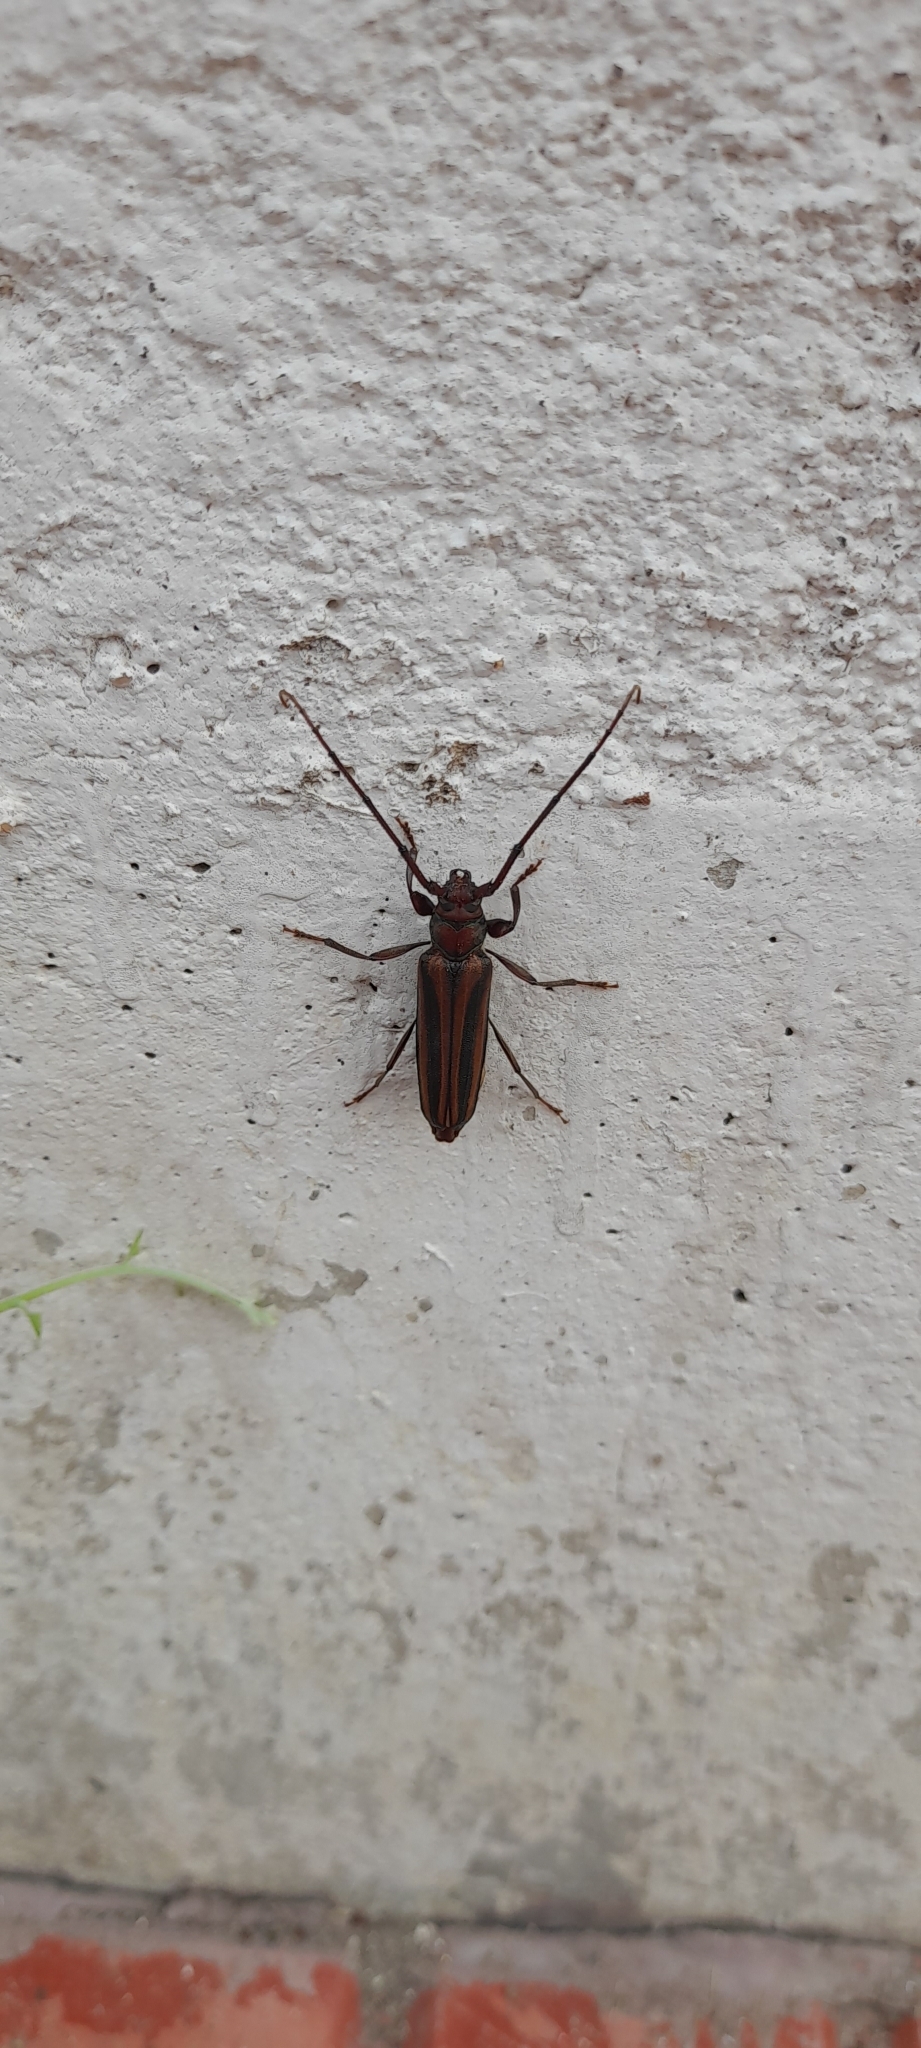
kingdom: Animalia
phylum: Arthropoda
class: Insecta
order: Coleoptera
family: Cerambycidae
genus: Xystrocera
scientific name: Xystrocera globosa
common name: Peach-tree longhorn
